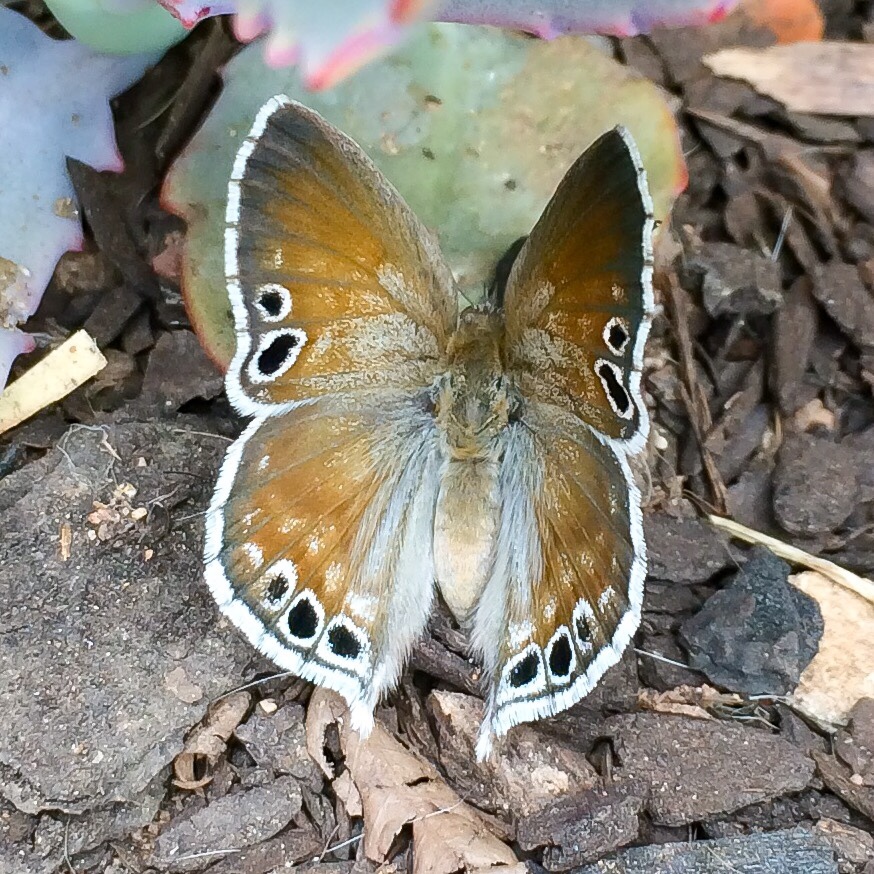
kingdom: Animalia
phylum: Arthropoda
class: Insecta
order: Lepidoptera
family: Lycaenidae
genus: Leptomyrina
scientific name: Leptomyrina gorgias
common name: Common black-eye
